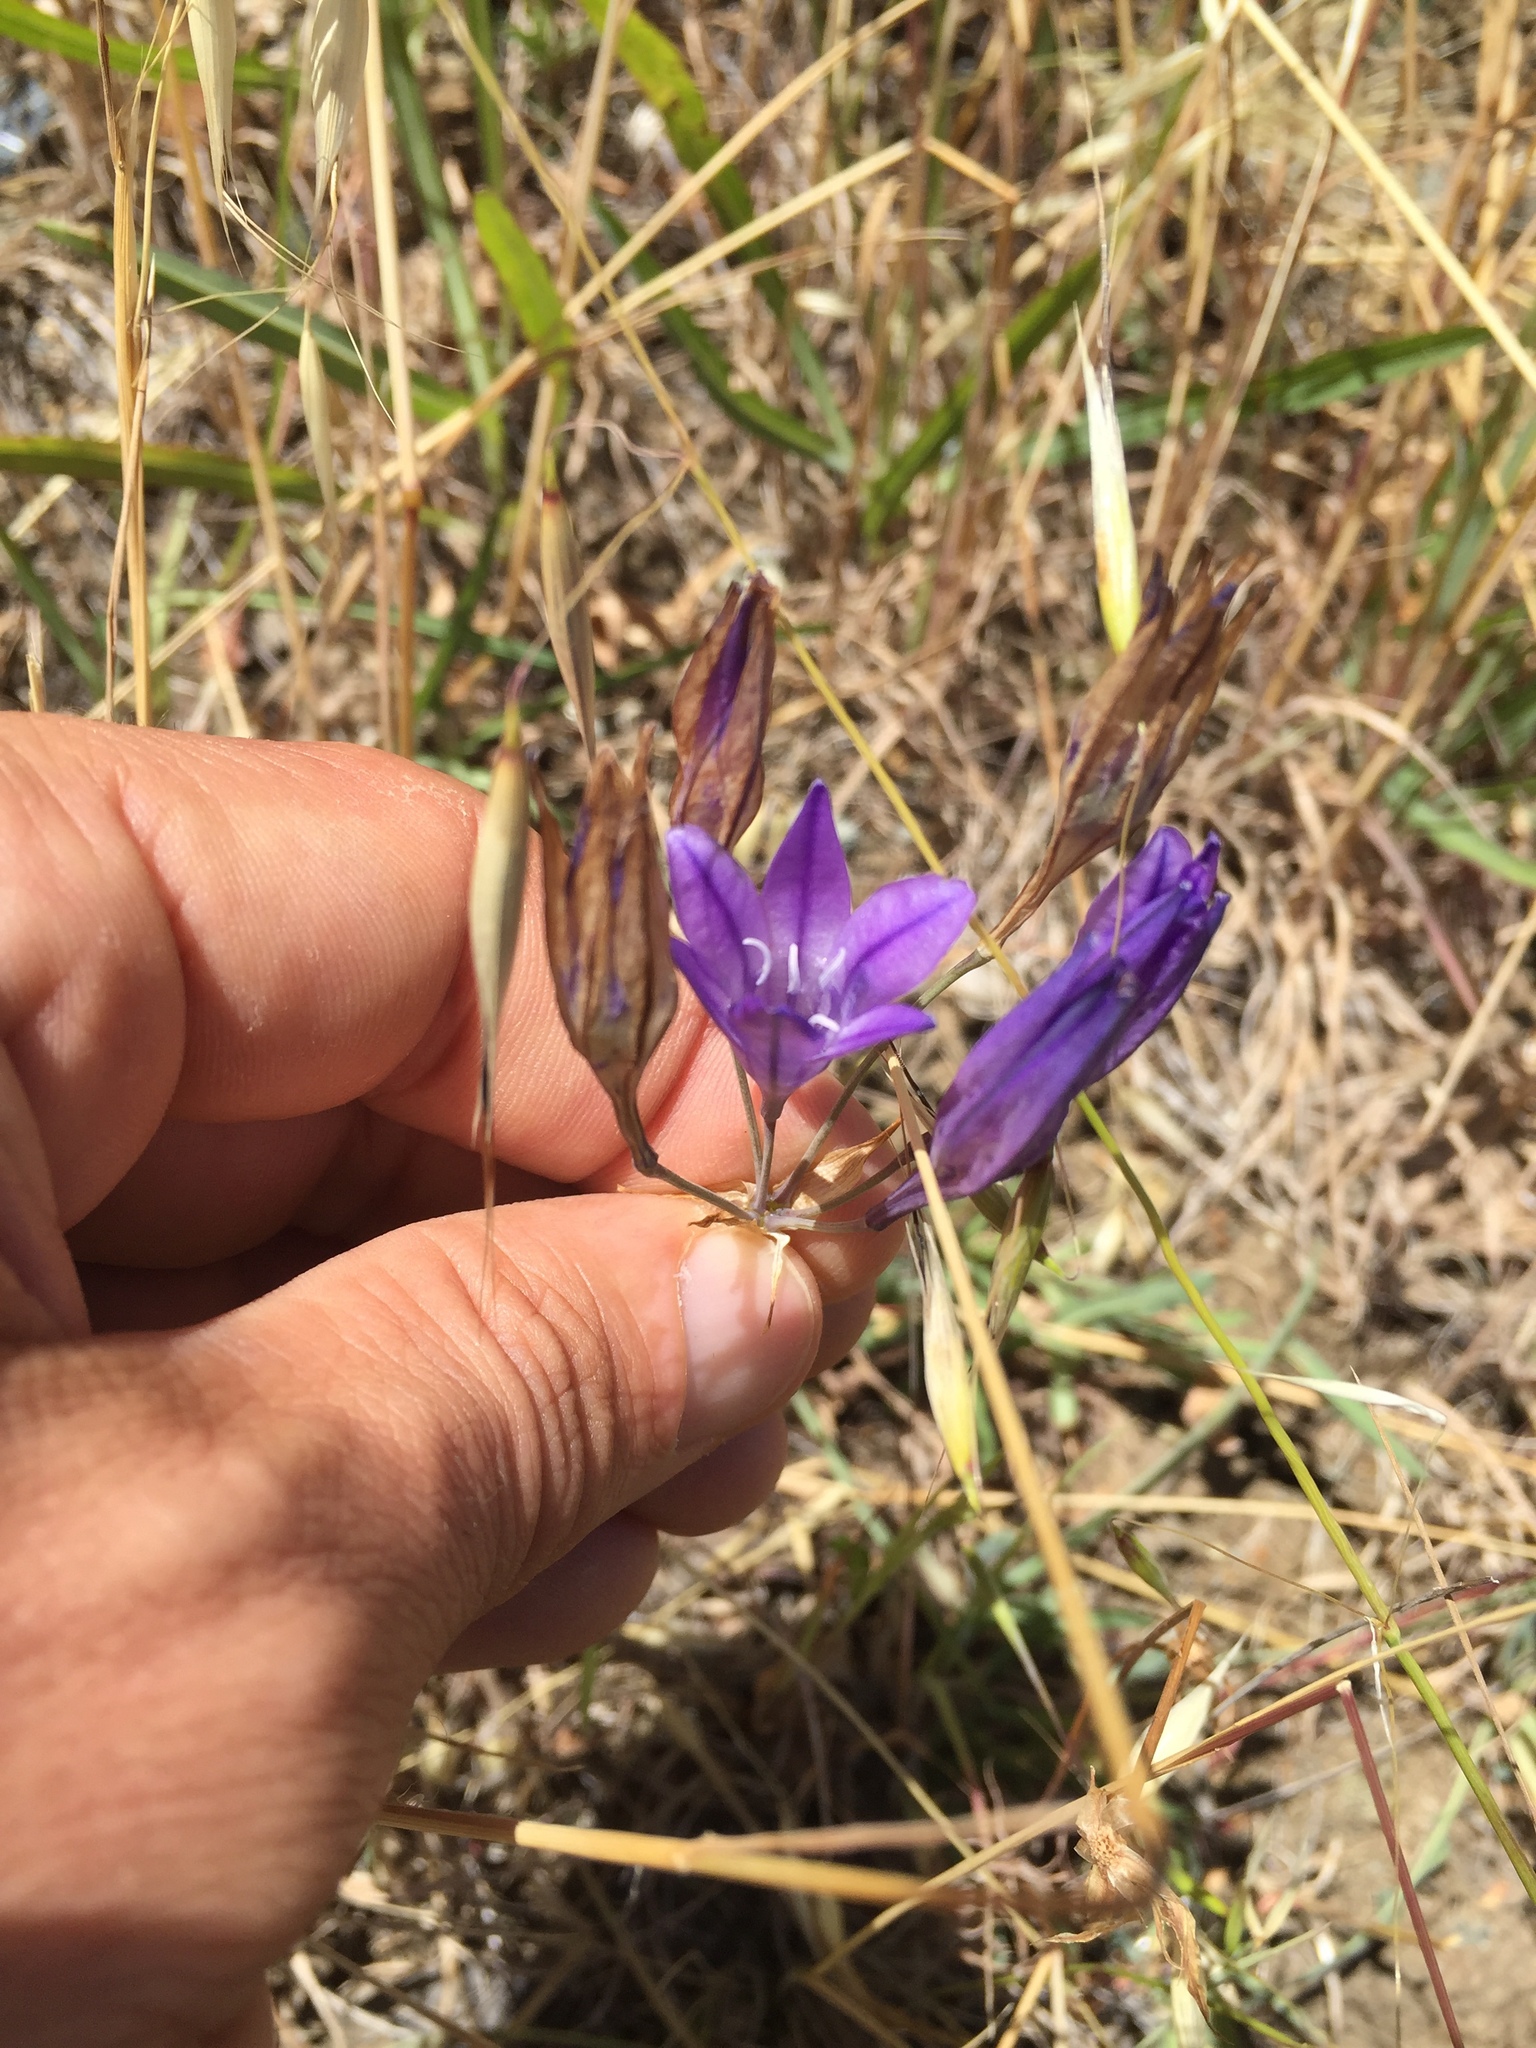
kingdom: Plantae
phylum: Tracheophyta
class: Liliopsida
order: Asparagales
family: Asparagaceae
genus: Triteleia
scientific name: Triteleia laxa
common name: Triplet-lily
